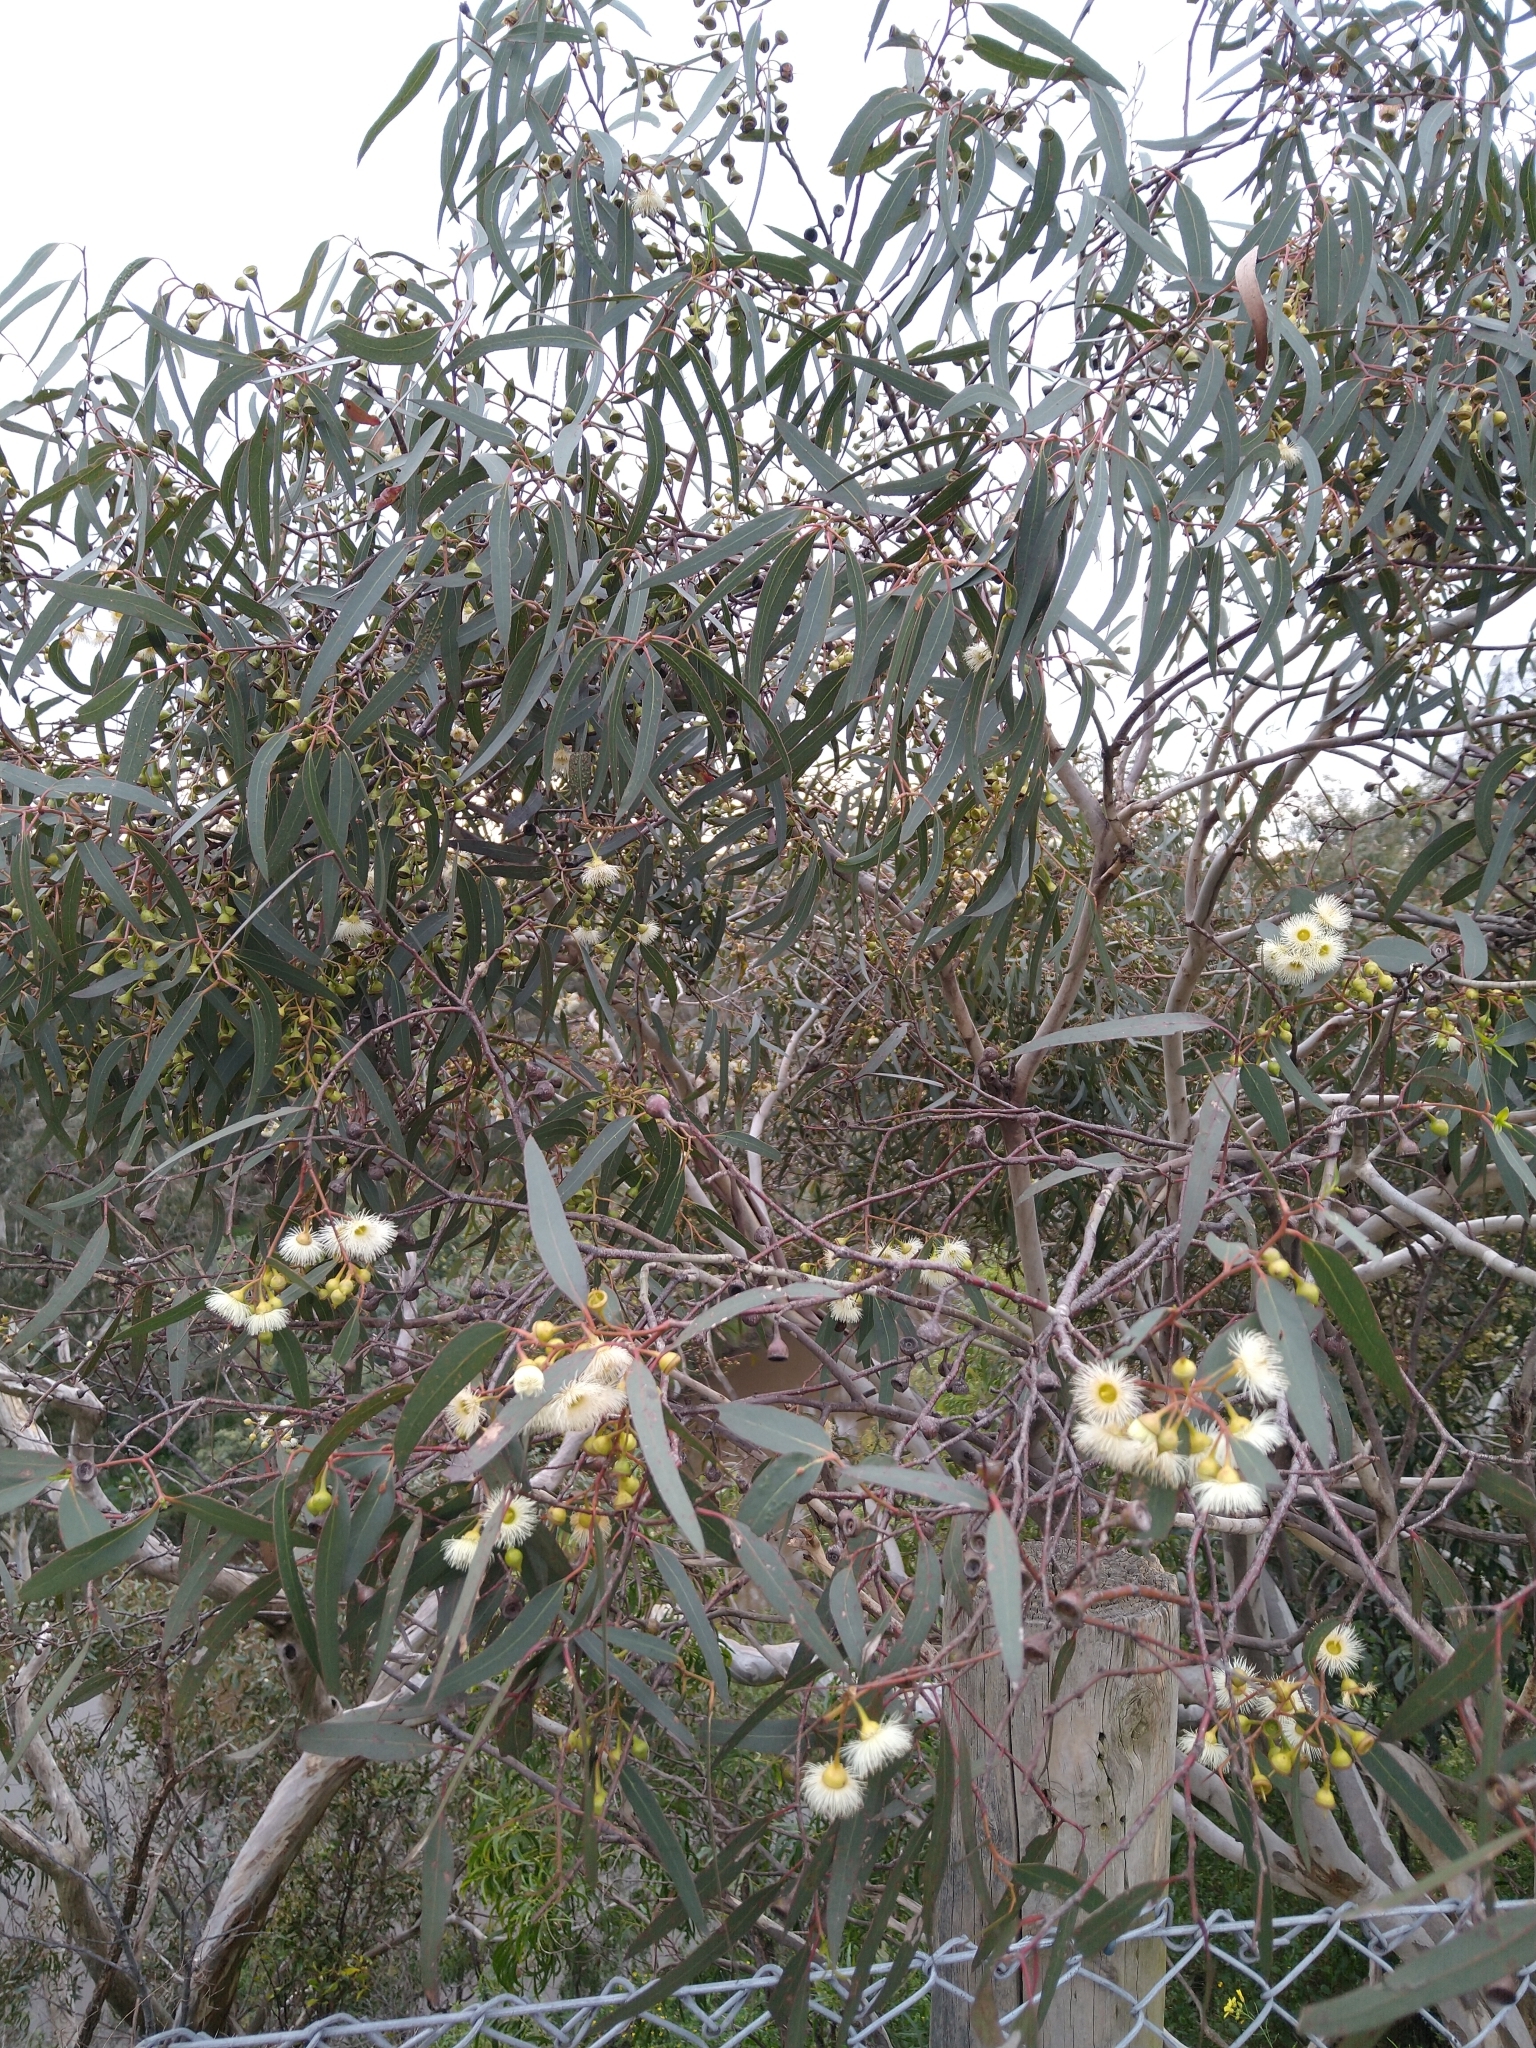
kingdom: Plantae
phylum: Tracheophyta
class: Magnoliopsida
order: Myrtales
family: Myrtaceae
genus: Eucalyptus
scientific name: Eucalyptus leucoxylon
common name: Blue gum
